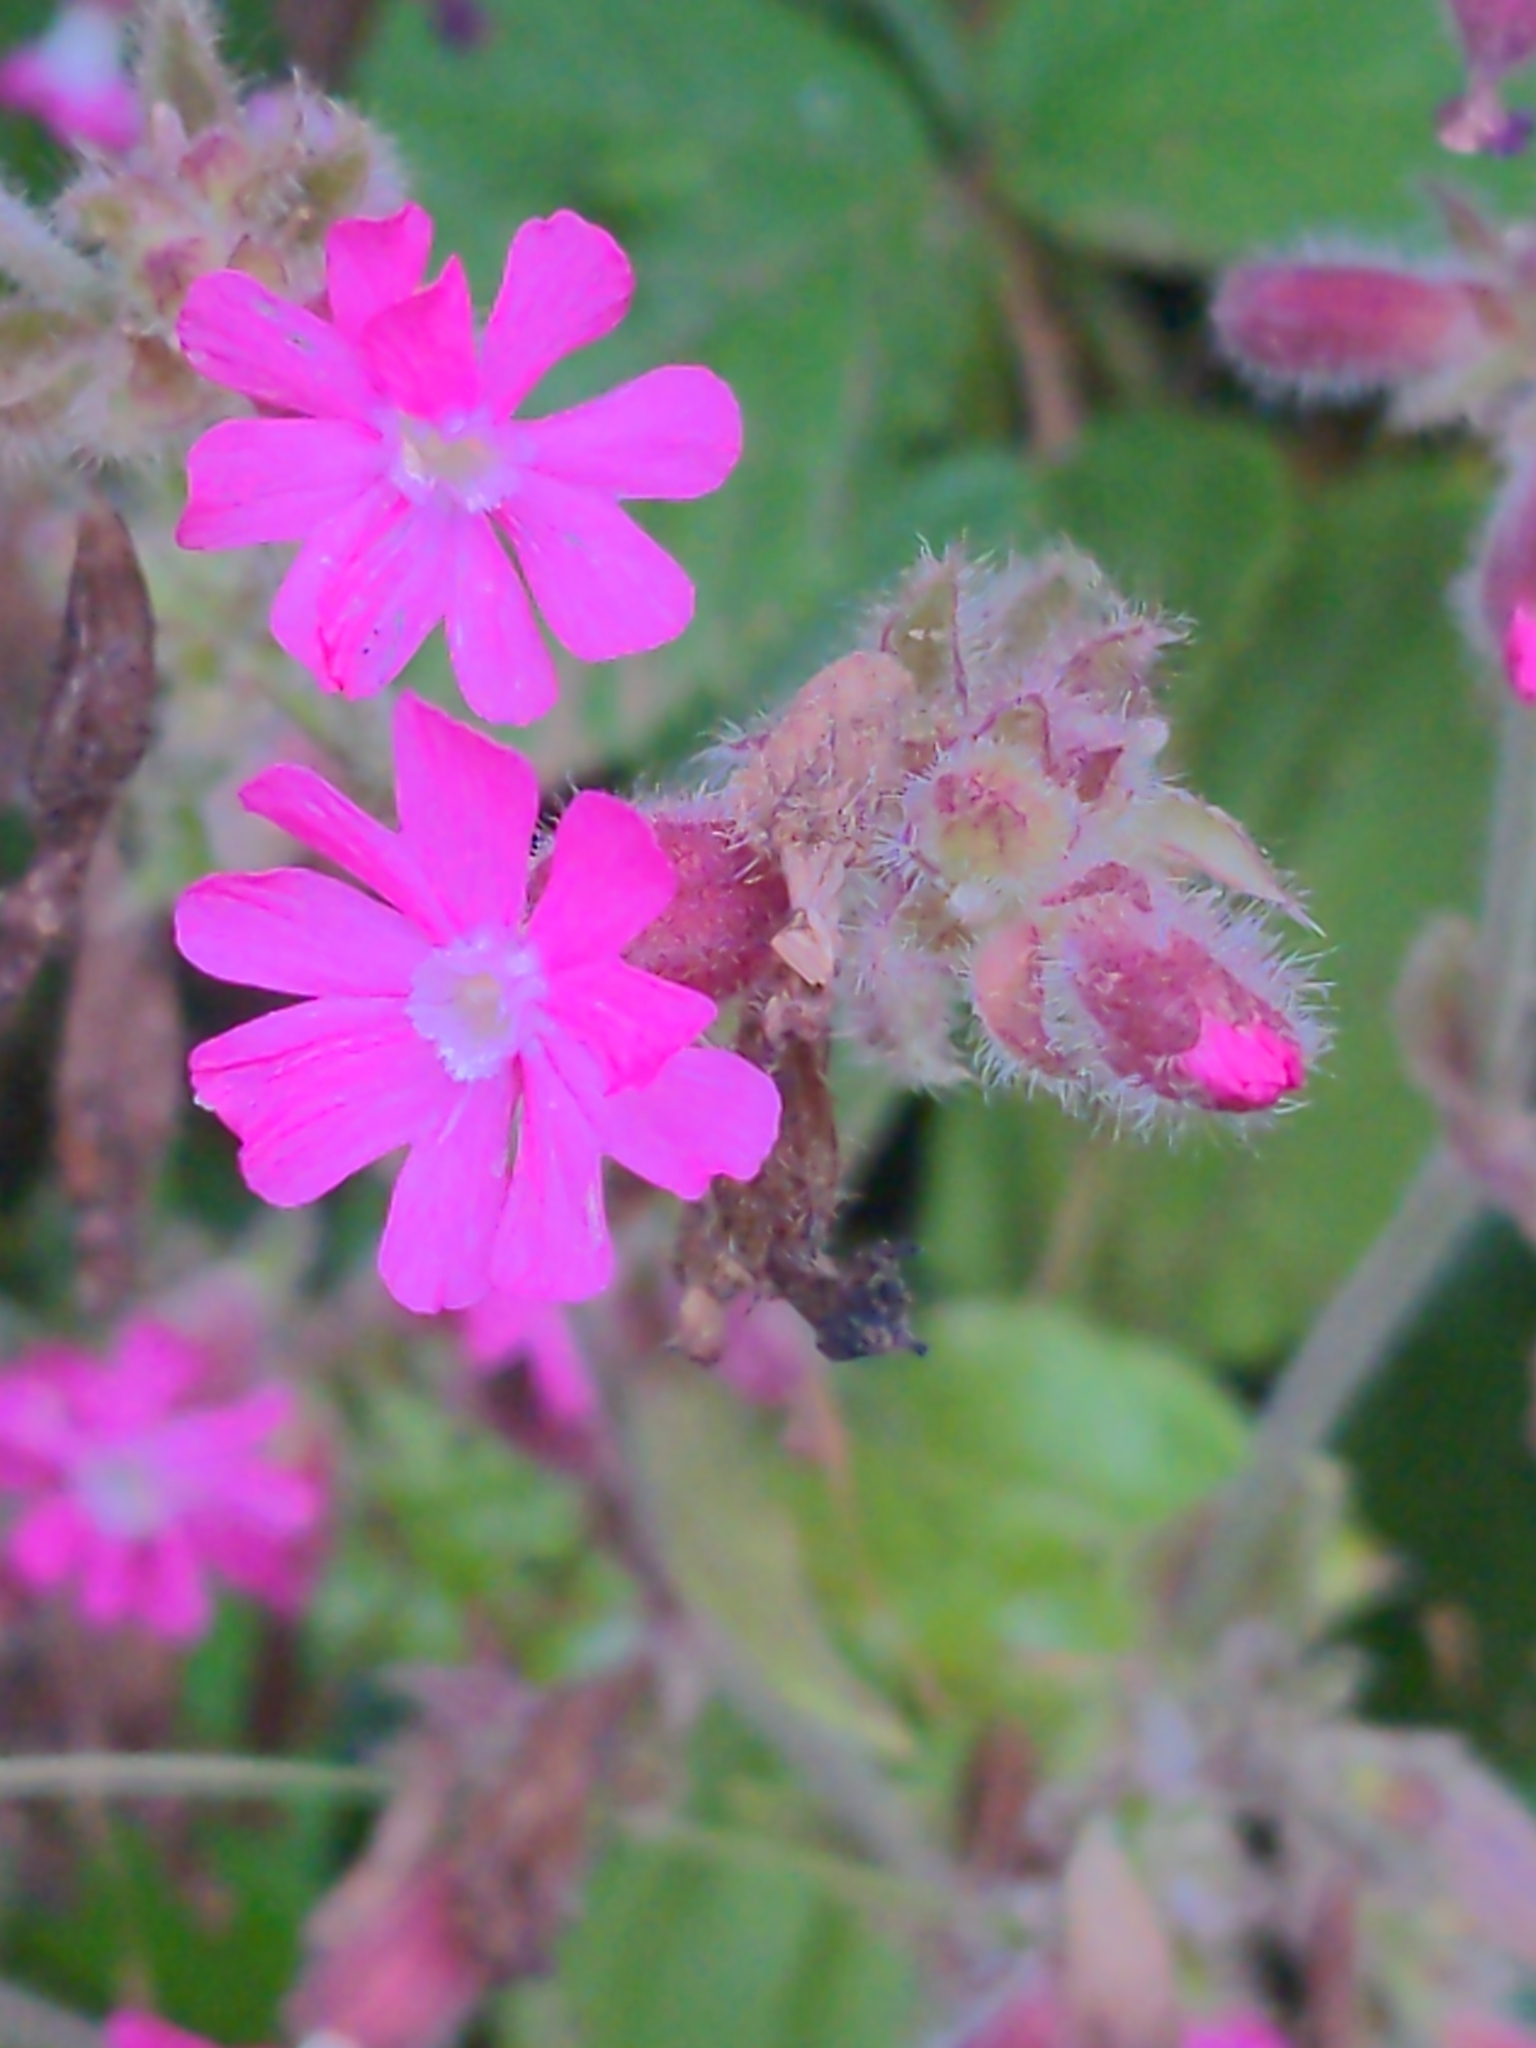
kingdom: Plantae
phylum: Tracheophyta
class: Magnoliopsida
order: Caryophyllales
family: Caryophyllaceae
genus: Silene
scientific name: Silene dioica
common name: Red campion
